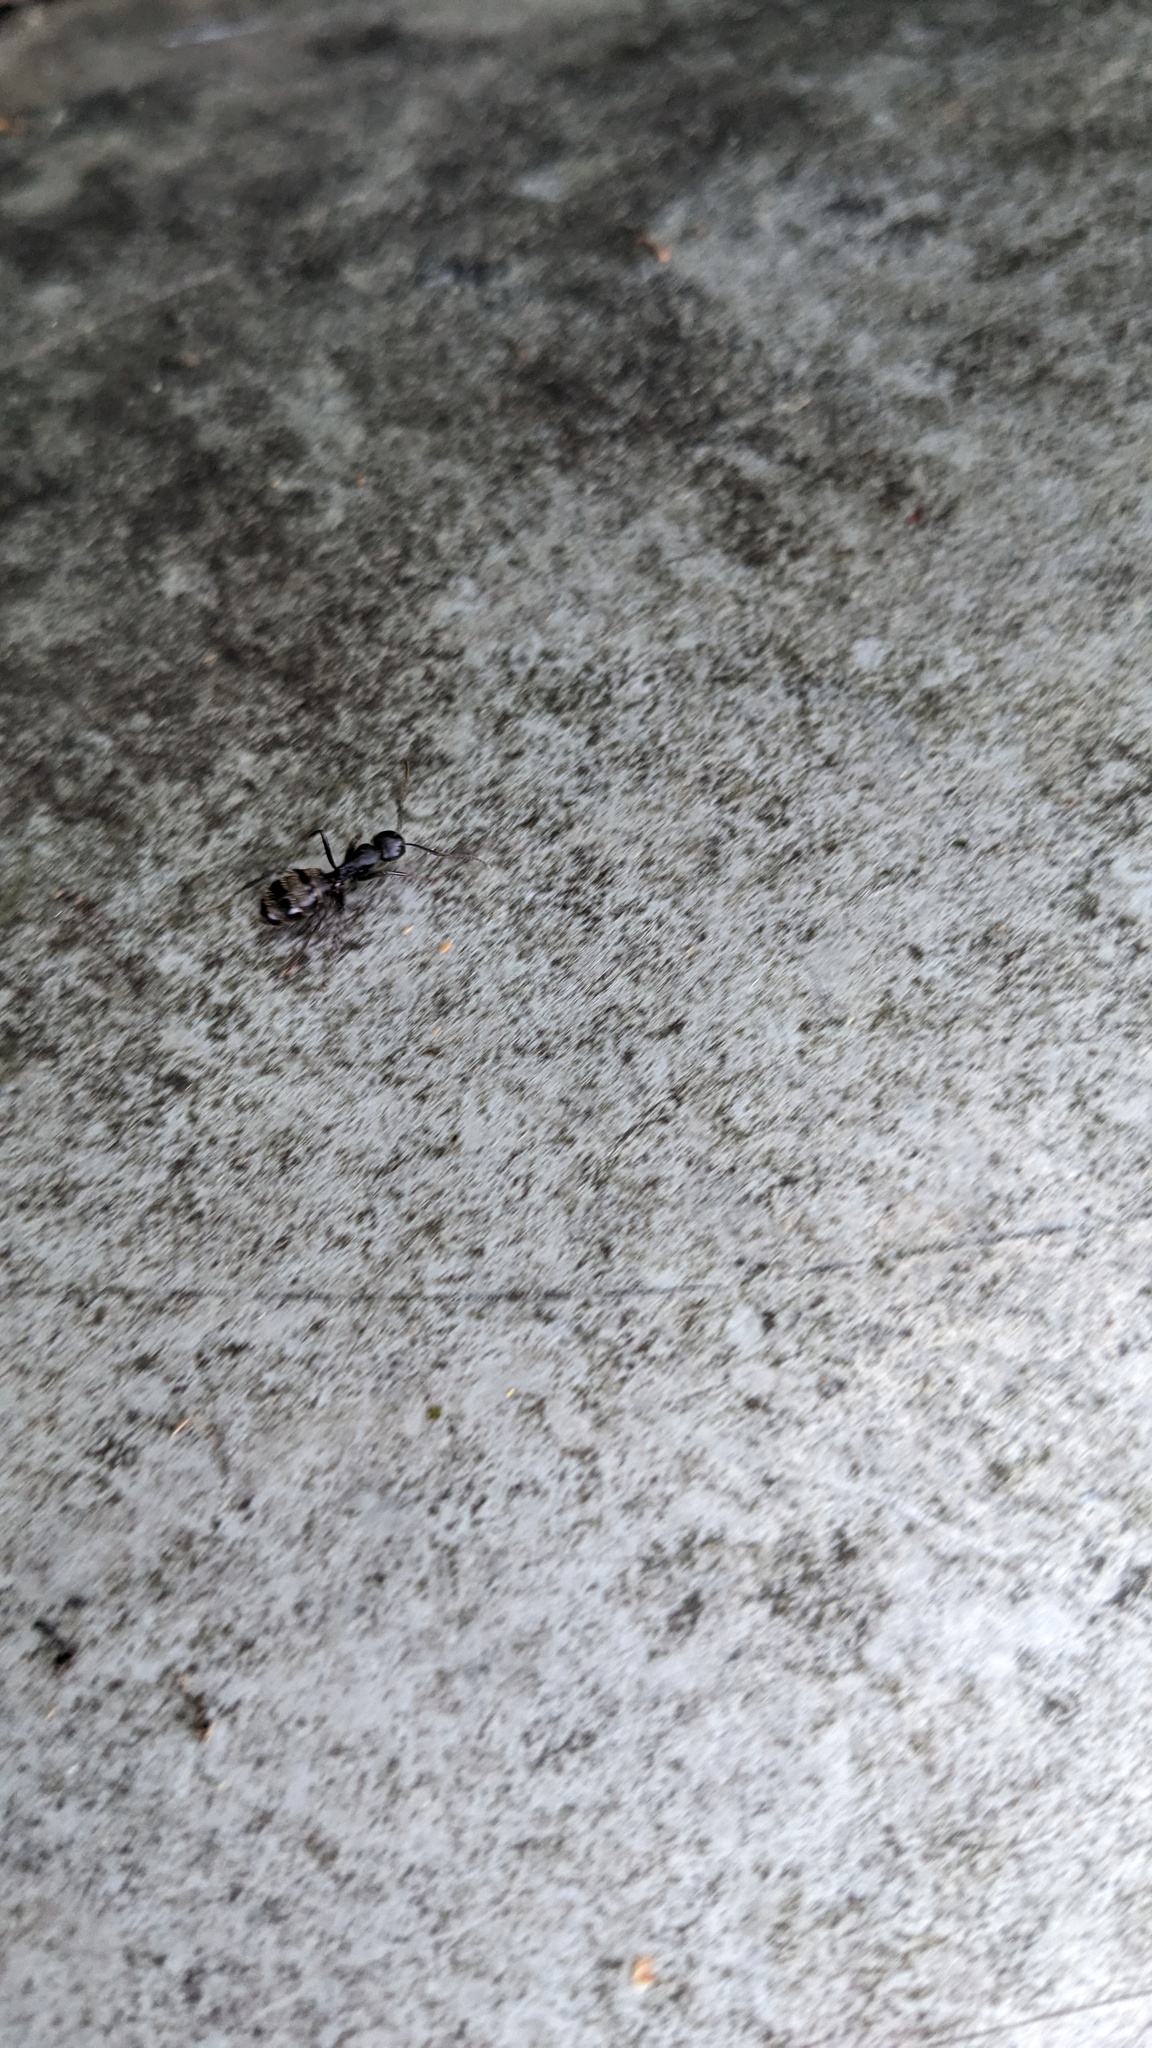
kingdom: Animalia
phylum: Arthropoda
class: Insecta
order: Hymenoptera
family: Formicidae
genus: Camponotus
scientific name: Camponotus pennsylvanicus
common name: Black carpenter ant
